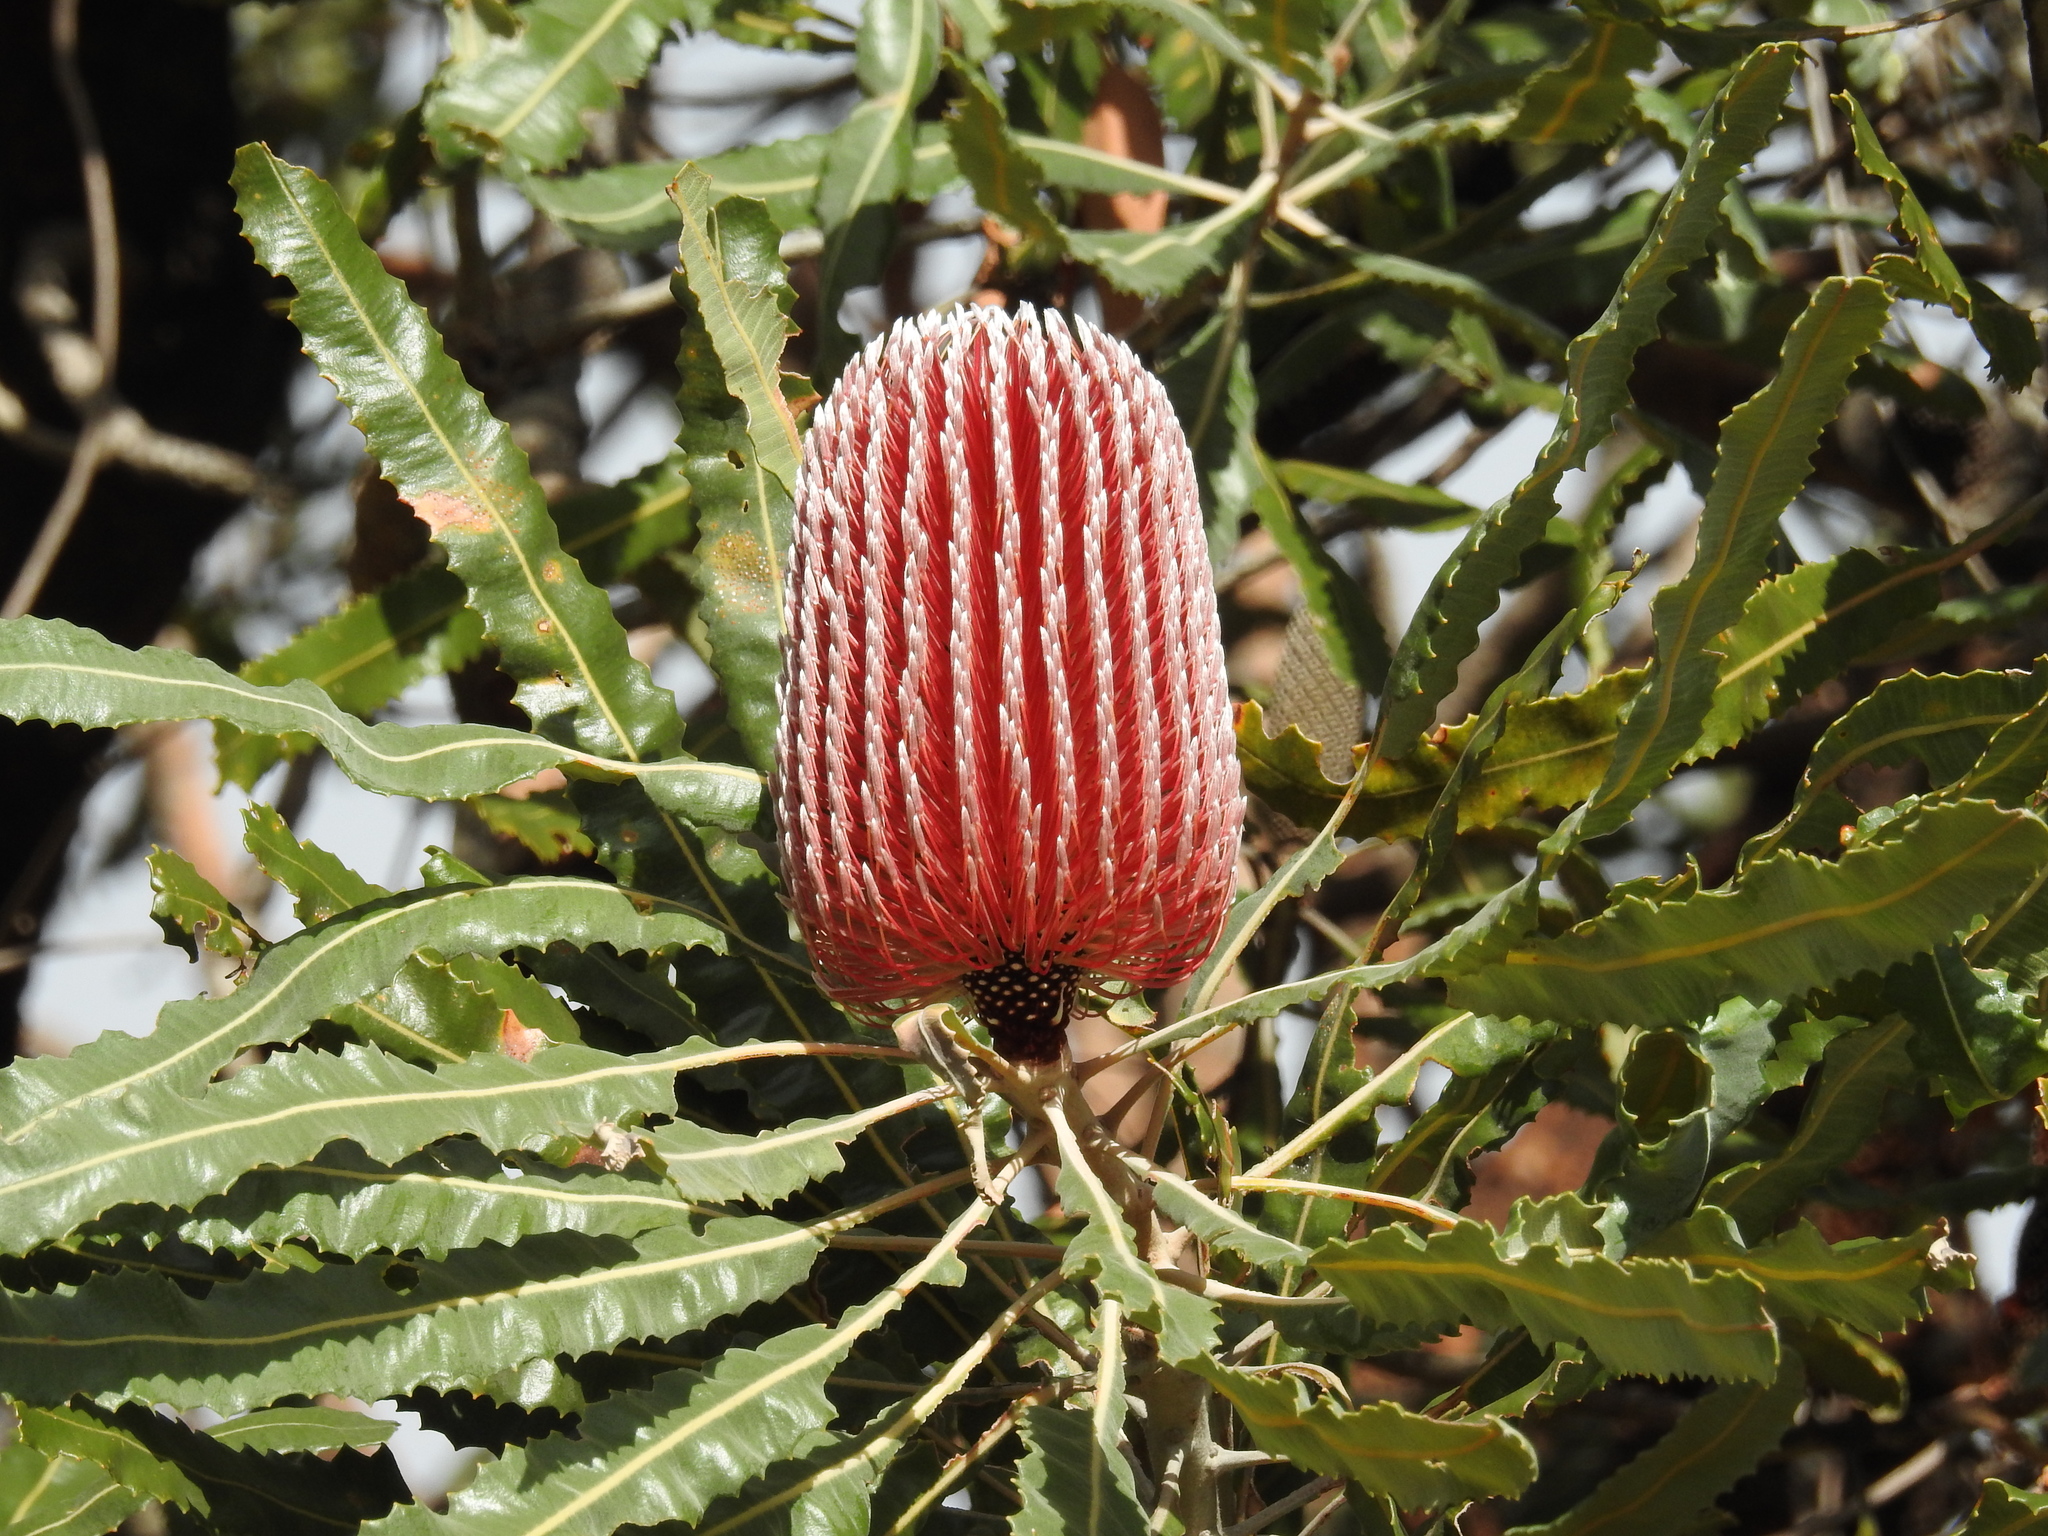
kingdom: Plantae
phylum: Tracheophyta
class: Magnoliopsida
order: Proteales
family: Proteaceae
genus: Banksia
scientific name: Banksia menziesii
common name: Menzie's banksia
